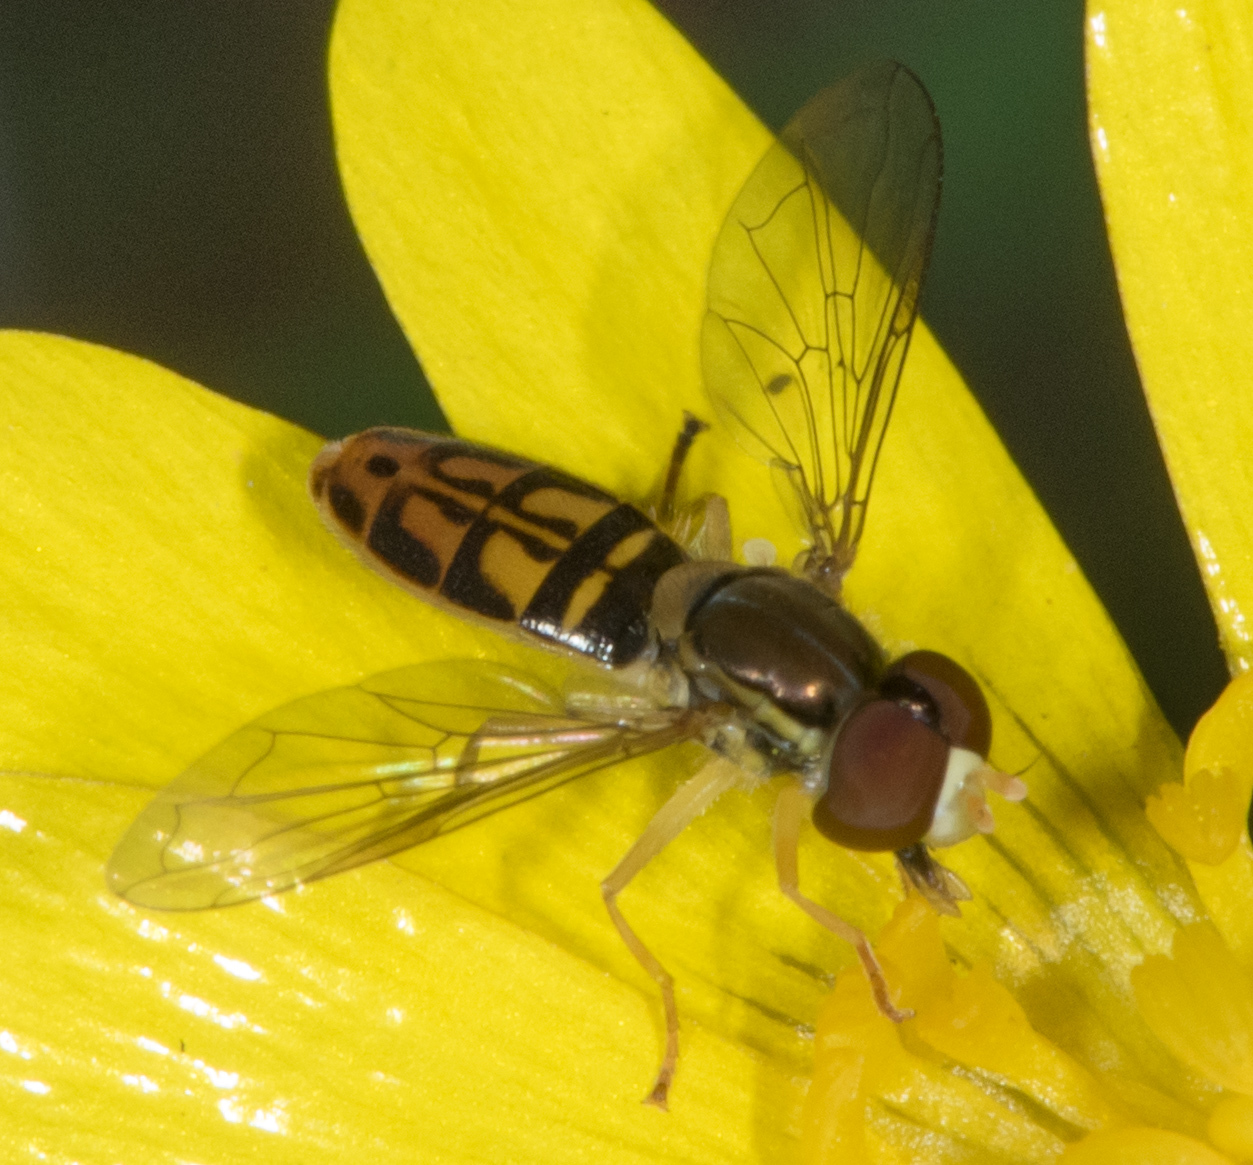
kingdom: Animalia
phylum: Arthropoda
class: Insecta
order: Diptera
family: Syrphidae
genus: Toxomerus
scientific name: Toxomerus marginatus
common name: Syrphid fly
